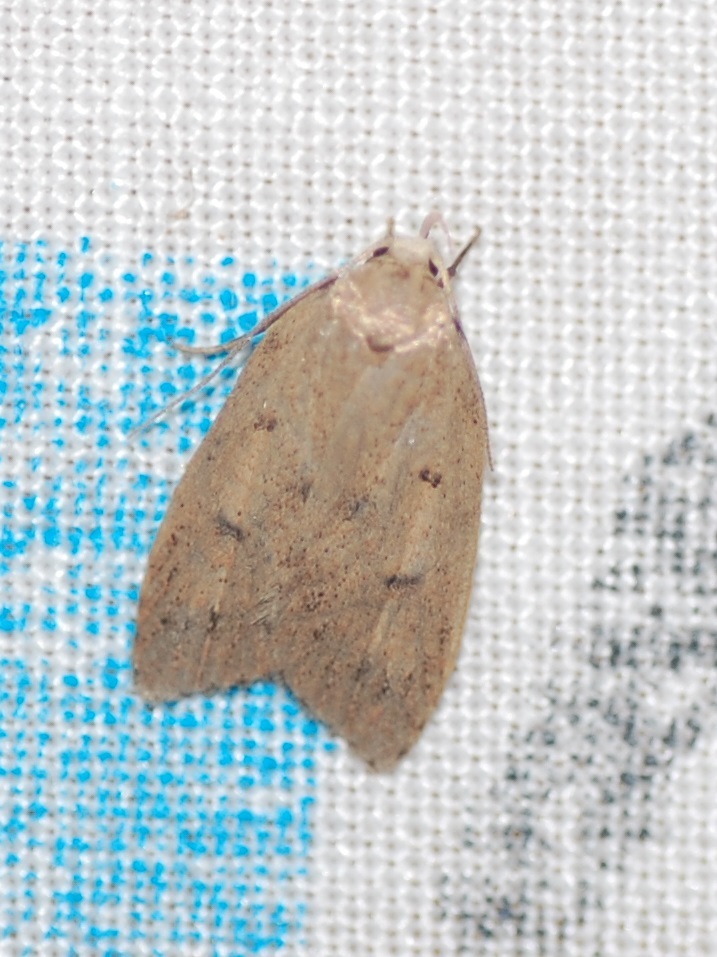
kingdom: Animalia
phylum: Arthropoda
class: Insecta
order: Lepidoptera
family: Peleopodidae
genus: Machimia
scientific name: Machimia tentoriferella
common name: Gold-striped leaftier moth
